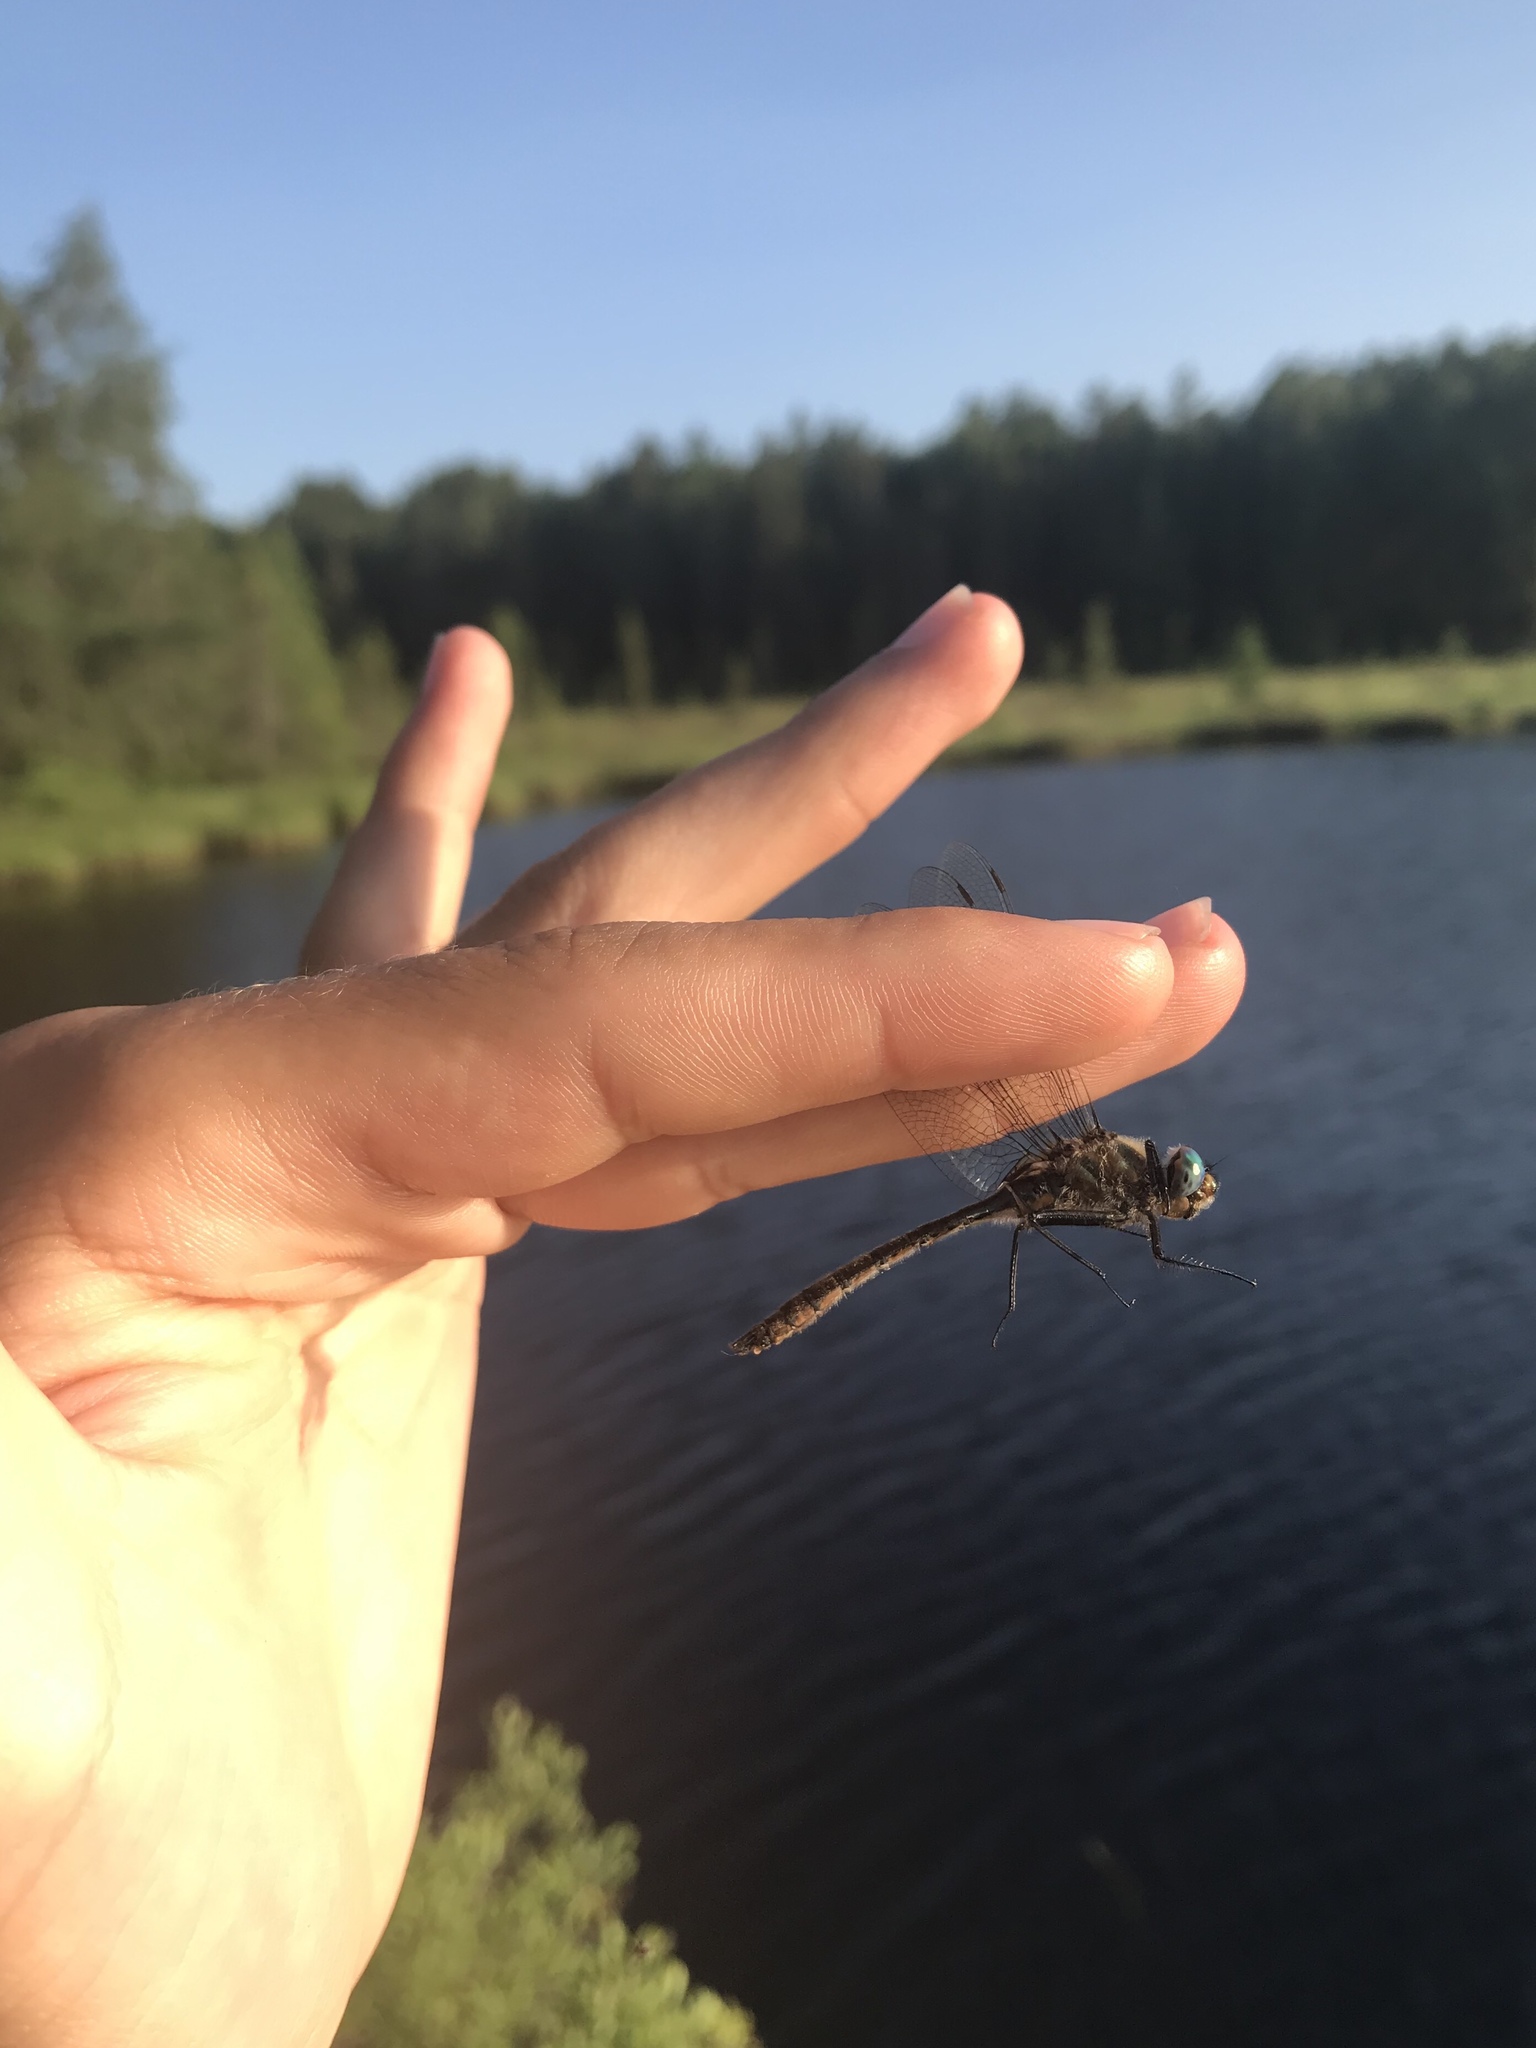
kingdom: Animalia
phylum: Arthropoda
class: Insecta
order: Odonata
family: Corduliidae
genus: Cordulia
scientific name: Cordulia shurtleffii
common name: American emerald
